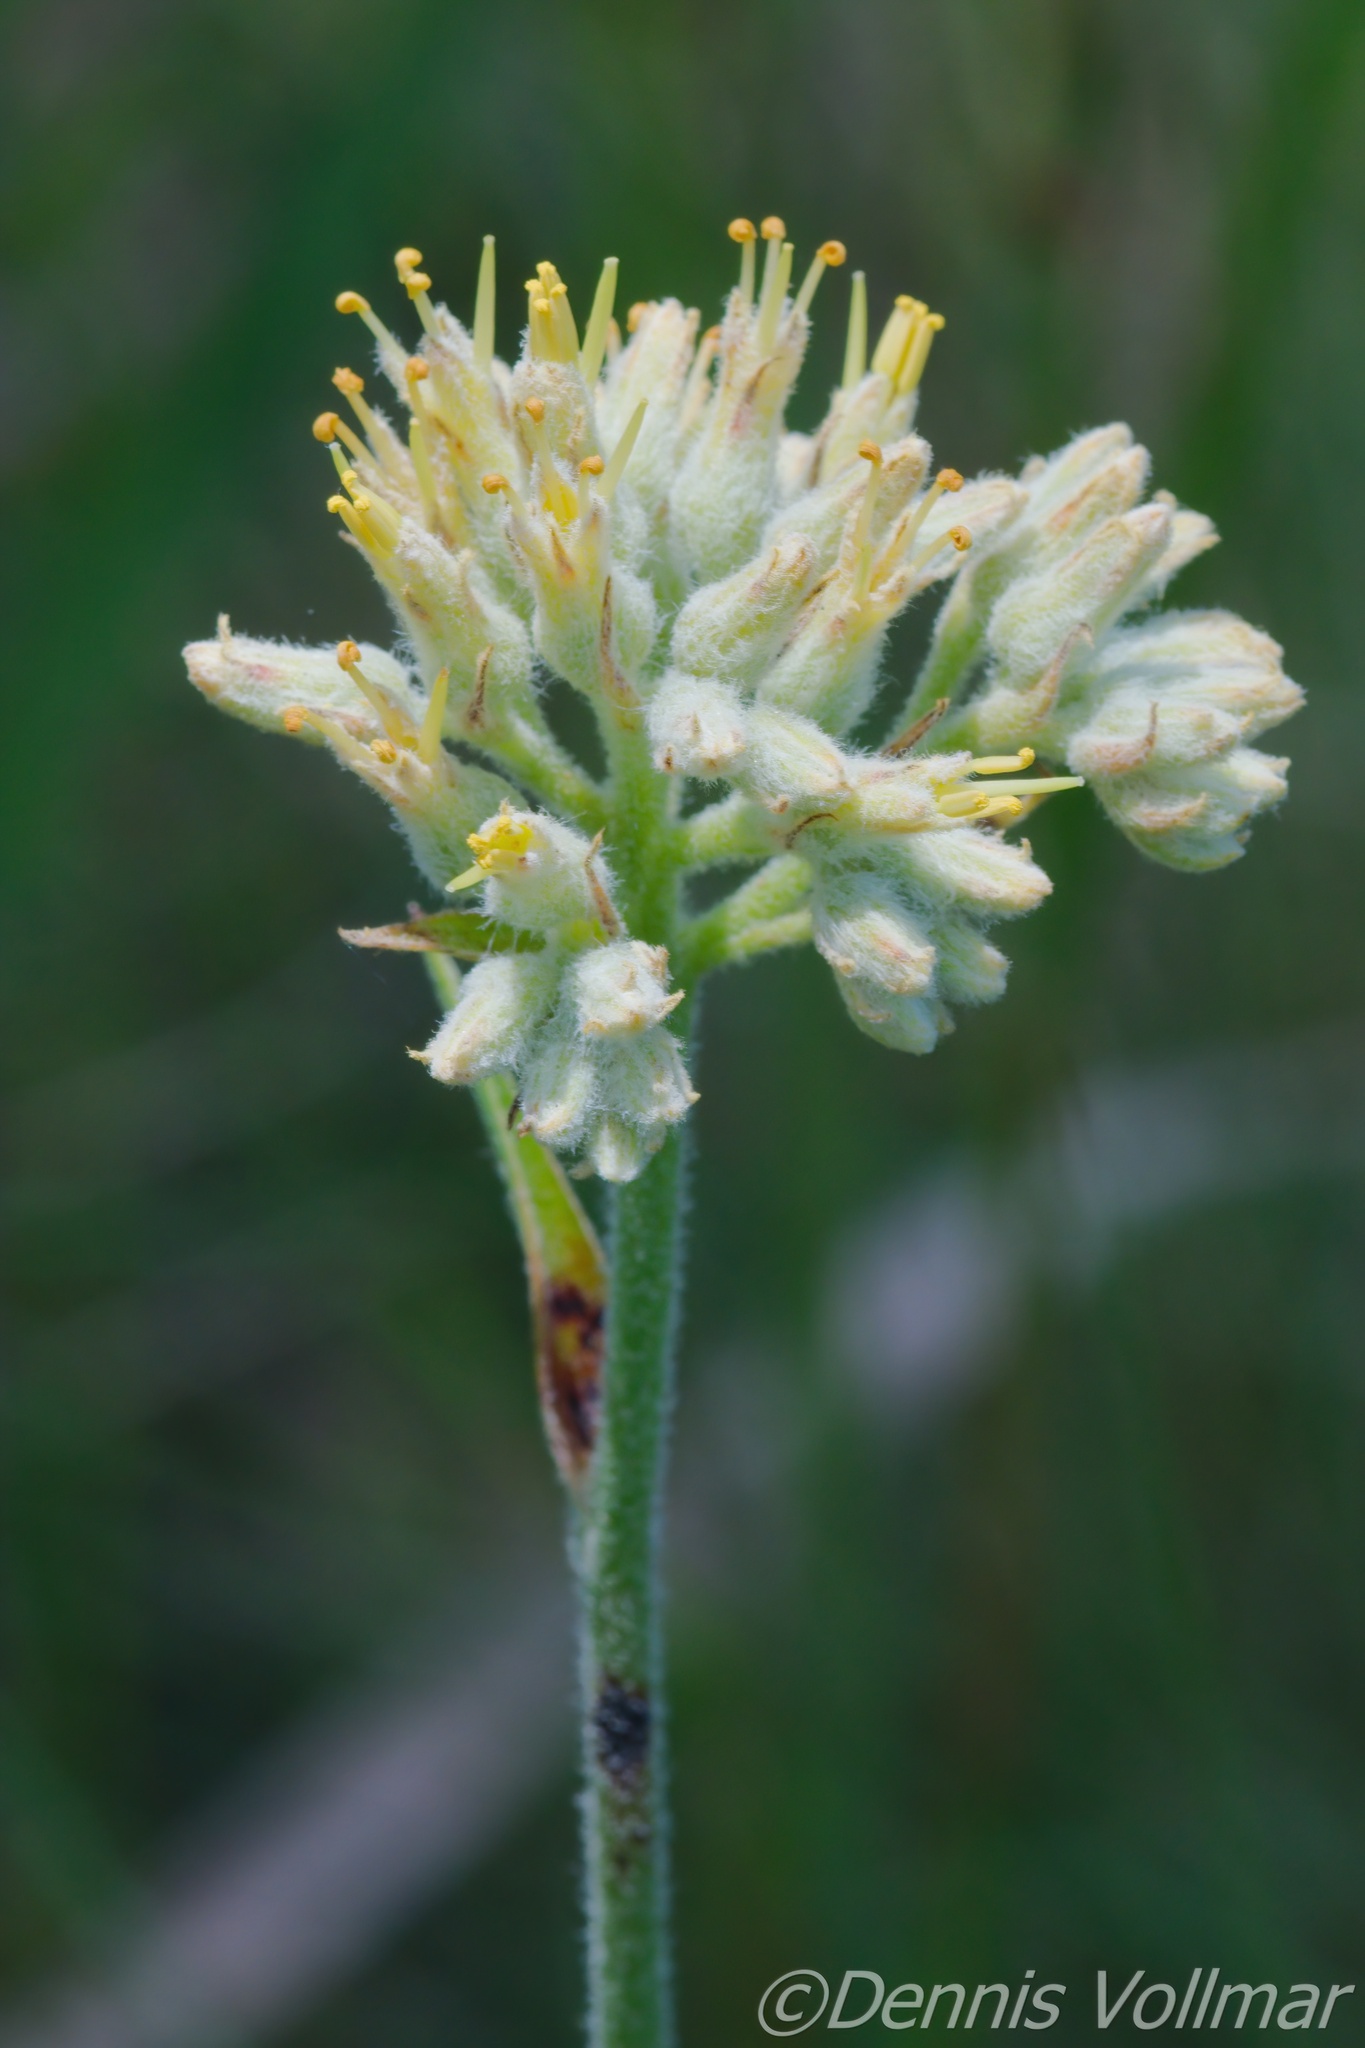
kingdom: Plantae
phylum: Tracheophyta
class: Liliopsida
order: Commelinales
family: Haemodoraceae
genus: Lachnanthes
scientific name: Lachnanthes caroliana
